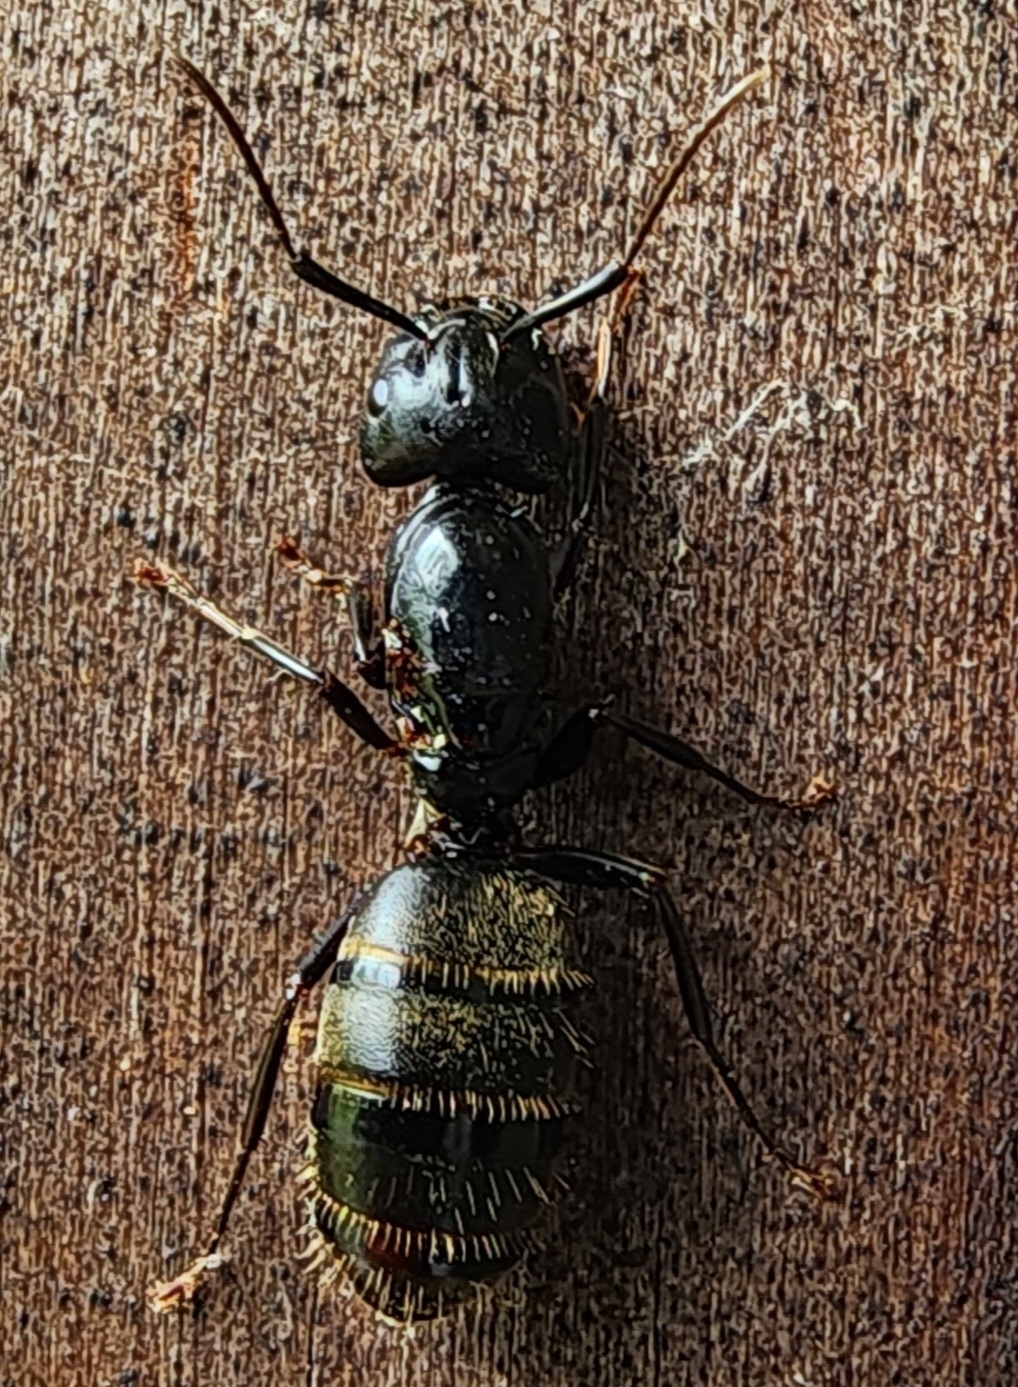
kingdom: Animalia
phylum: Arthropoda
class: Insecta
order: Hymenoptera
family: Formicidae
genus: Camponotus
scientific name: Camponotus pennsylvanicus
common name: Black carpenter ant
